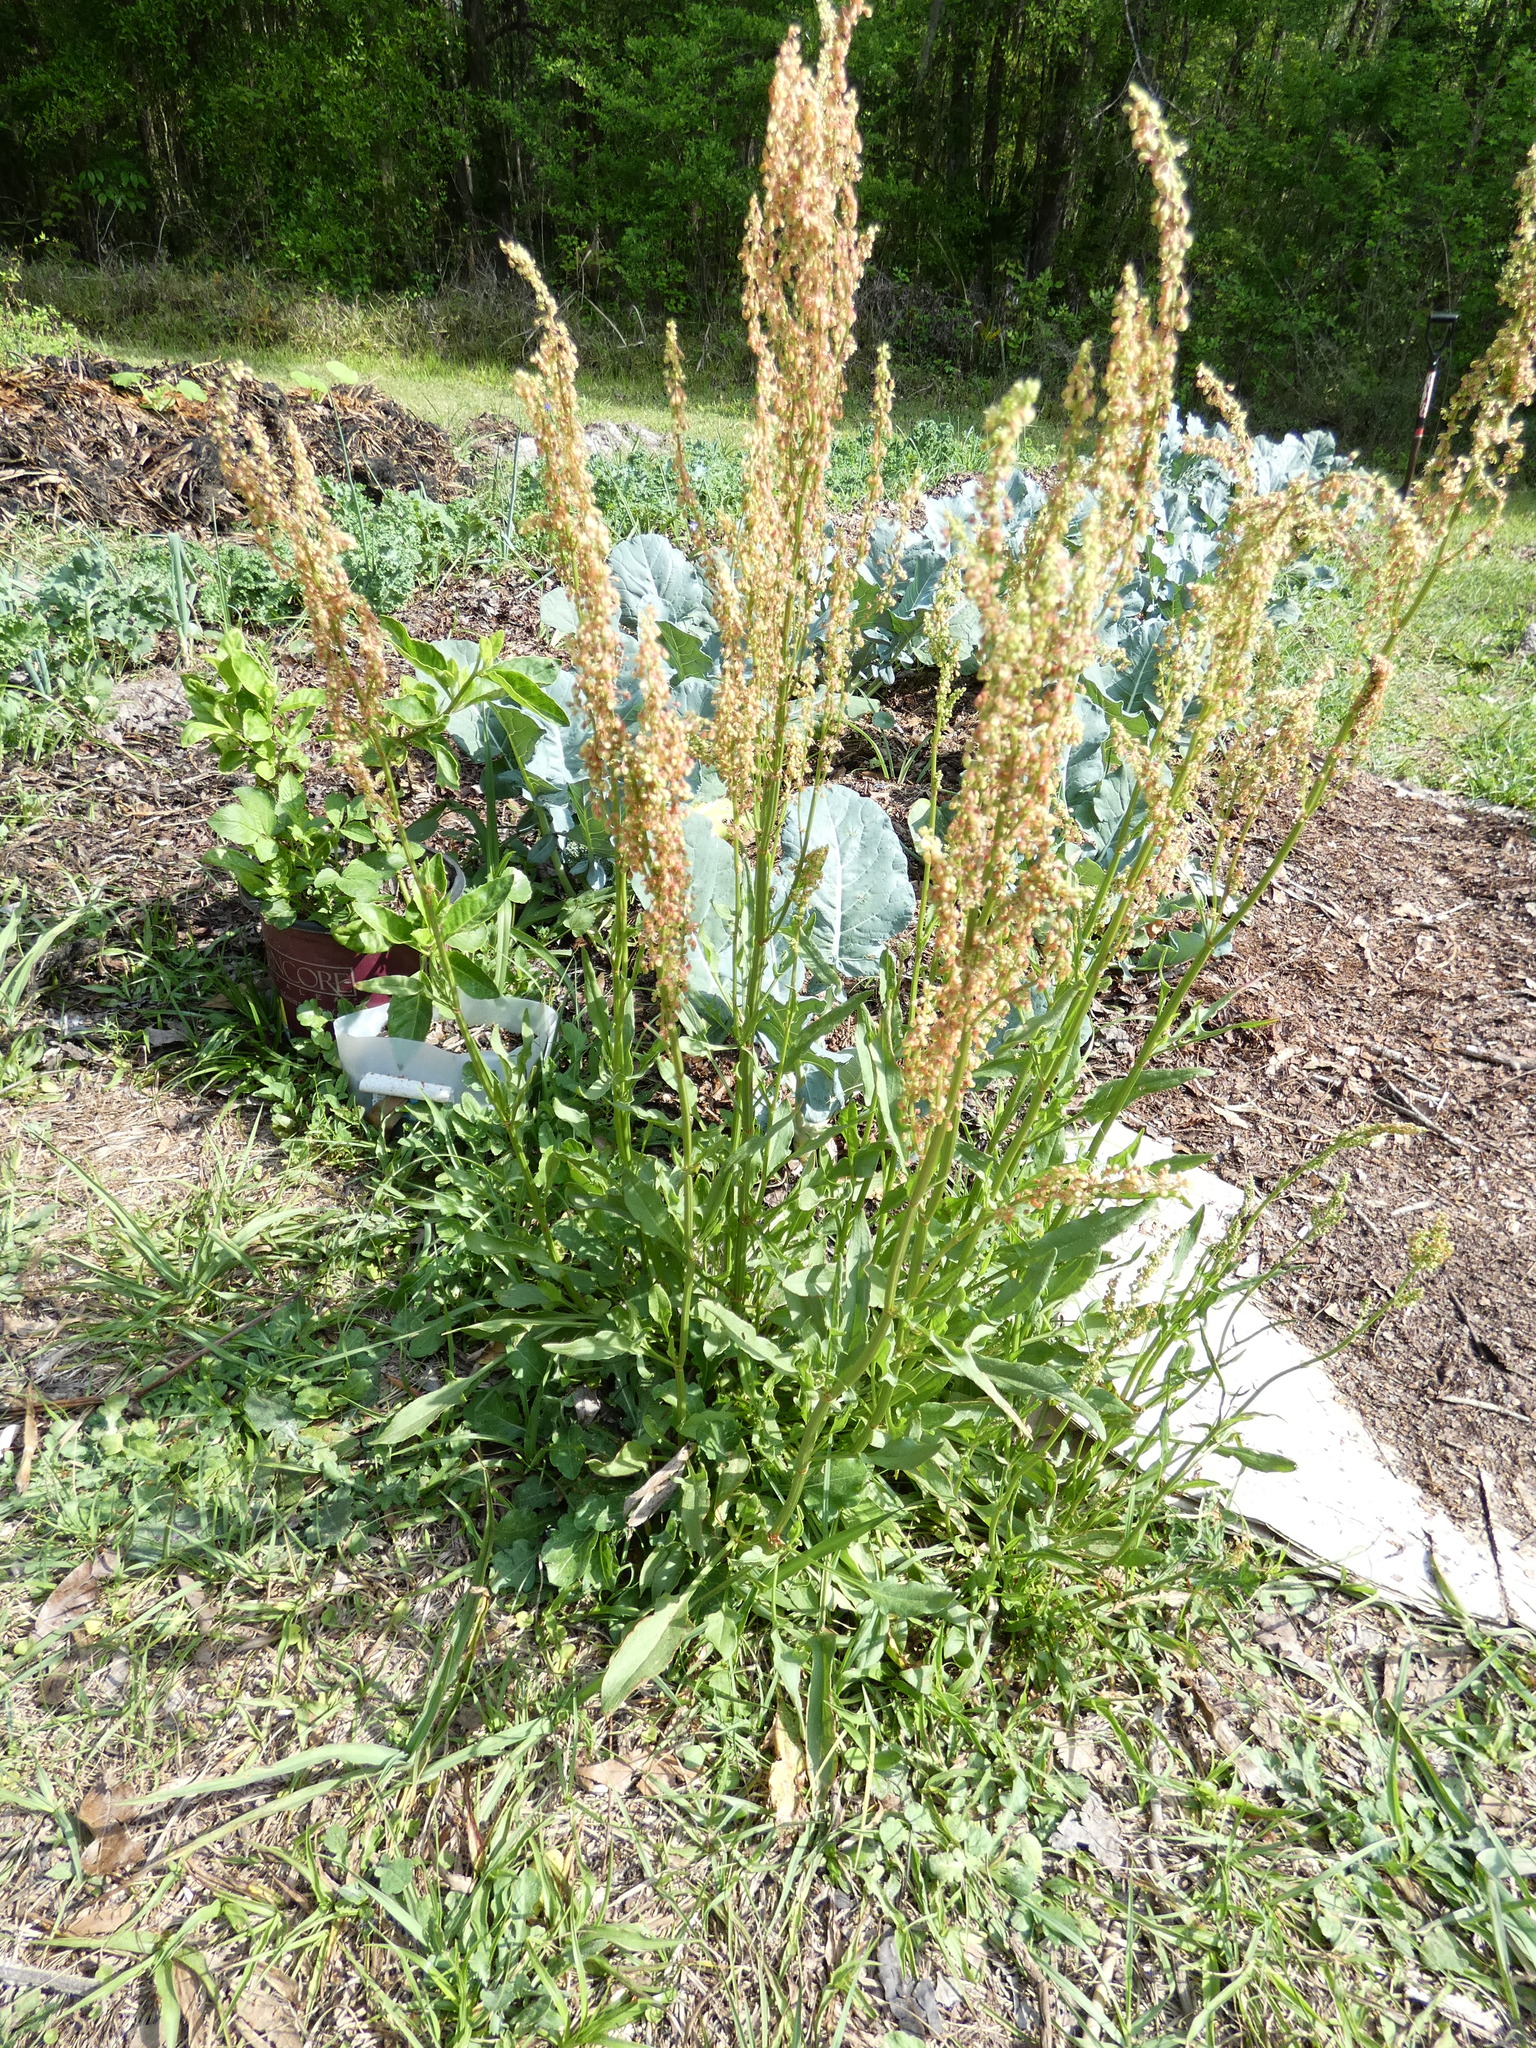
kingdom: Plantae
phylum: Tracheophyta
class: Magnoliopsida
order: Caryophyllales
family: Polygonaceae
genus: Rumex
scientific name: Rumex hastatulus
